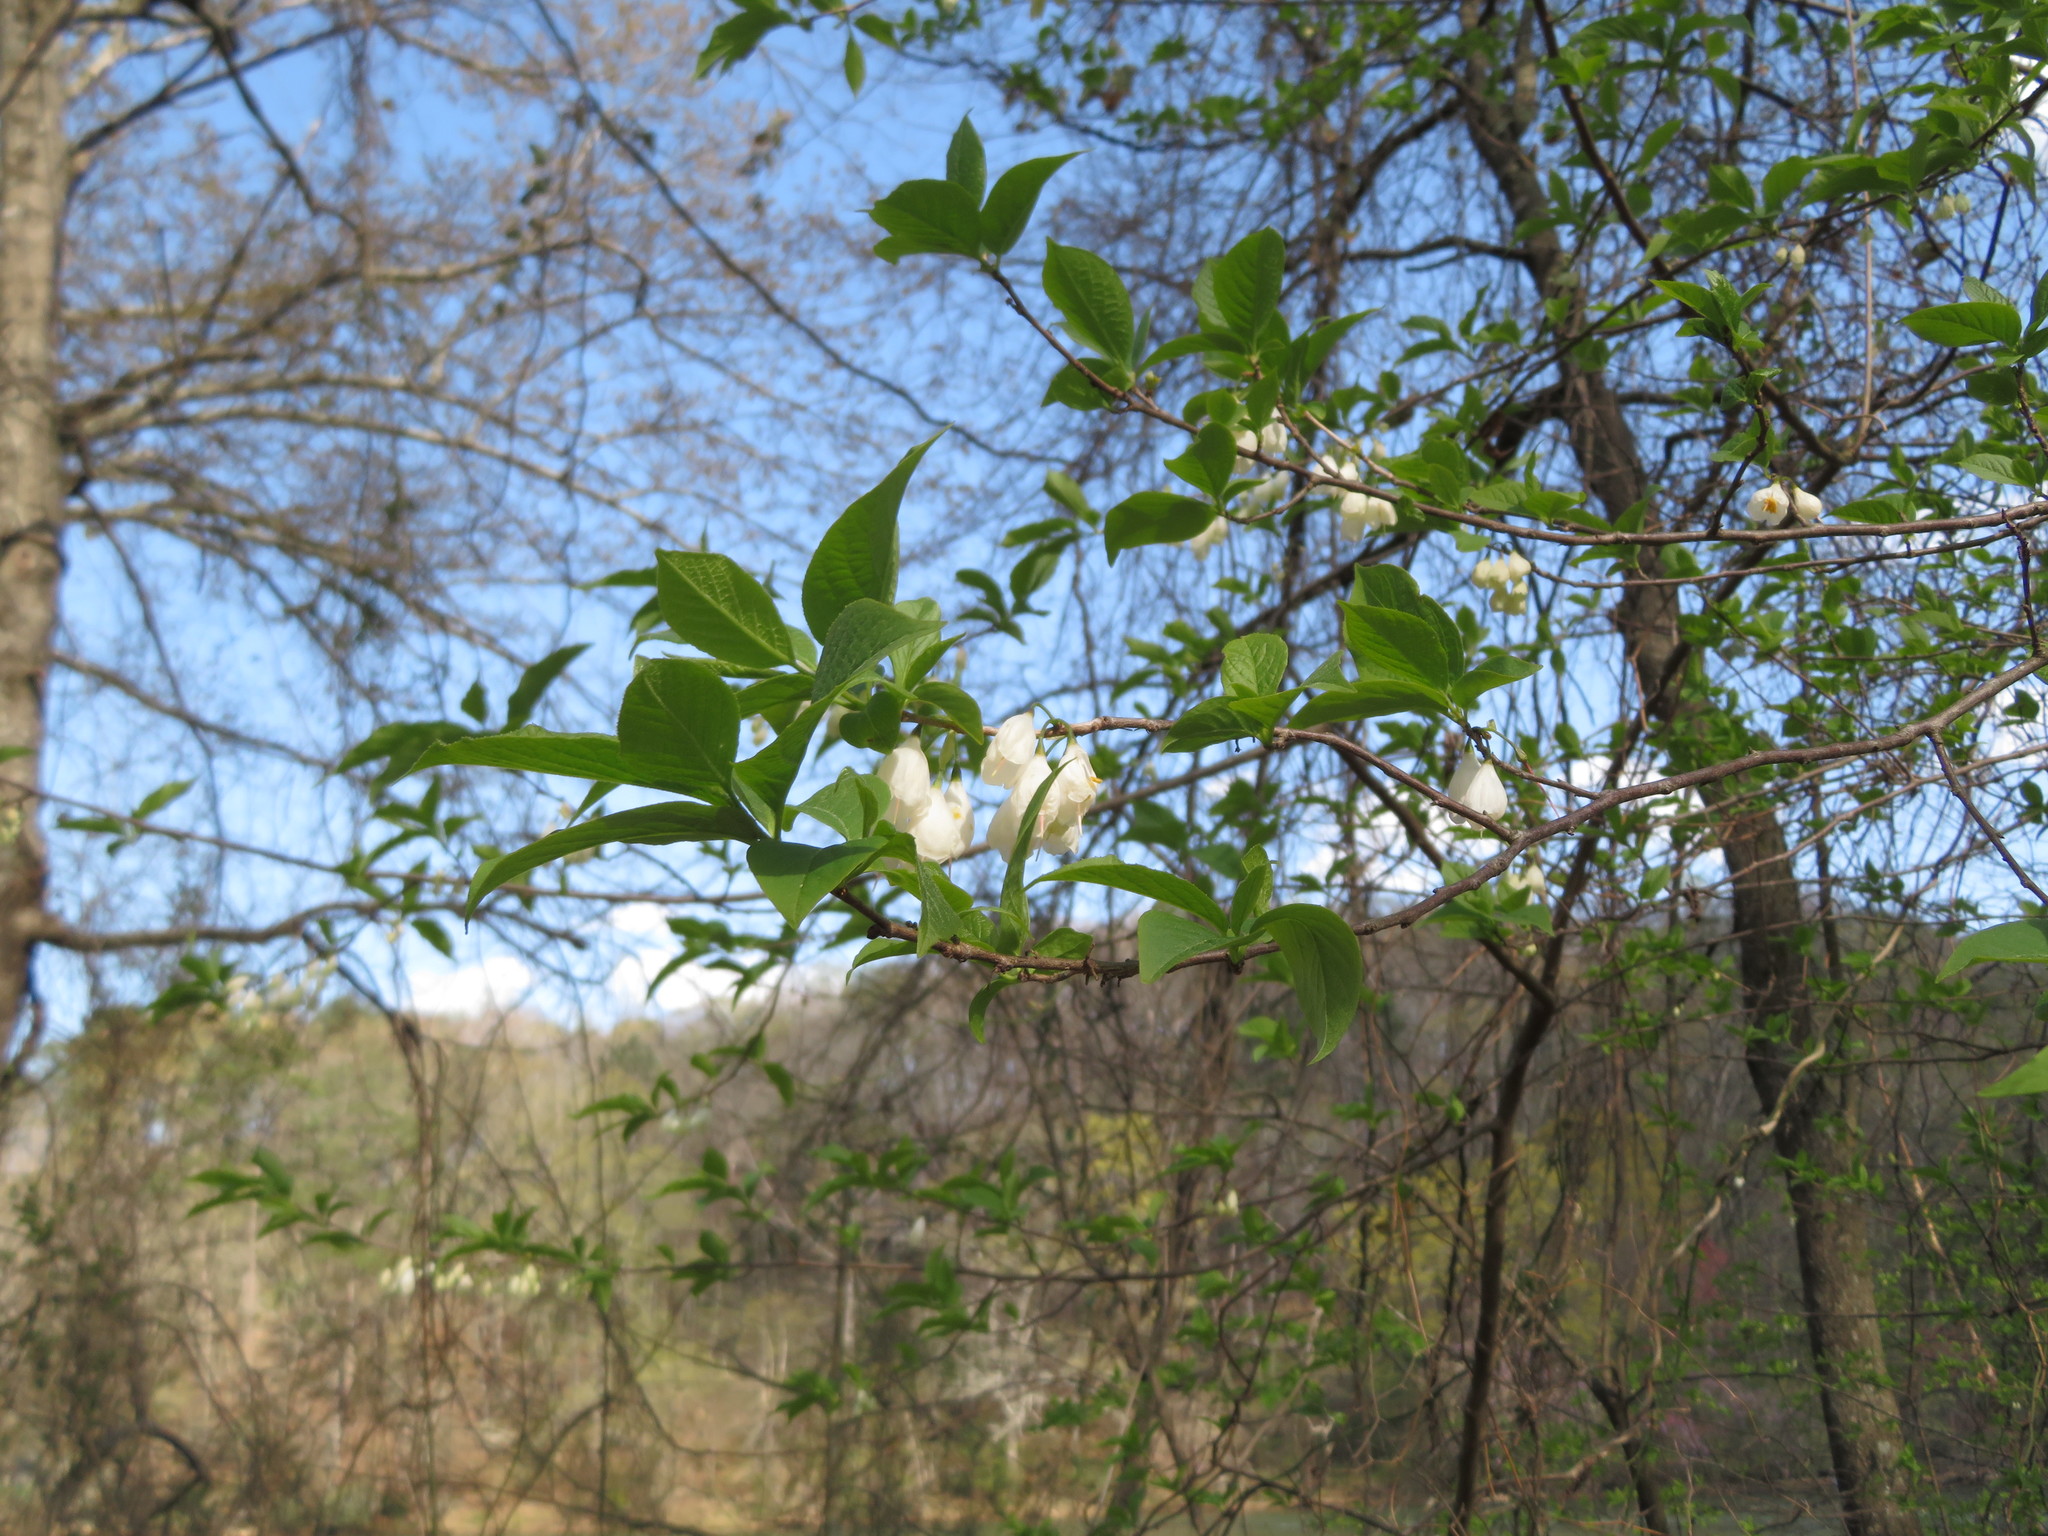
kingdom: Plantae
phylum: Tracheophyta
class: Magnoliopsida
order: Ericales
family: Styracaceae
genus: Halesia
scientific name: Halesia carolina
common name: Carolina silverbell
